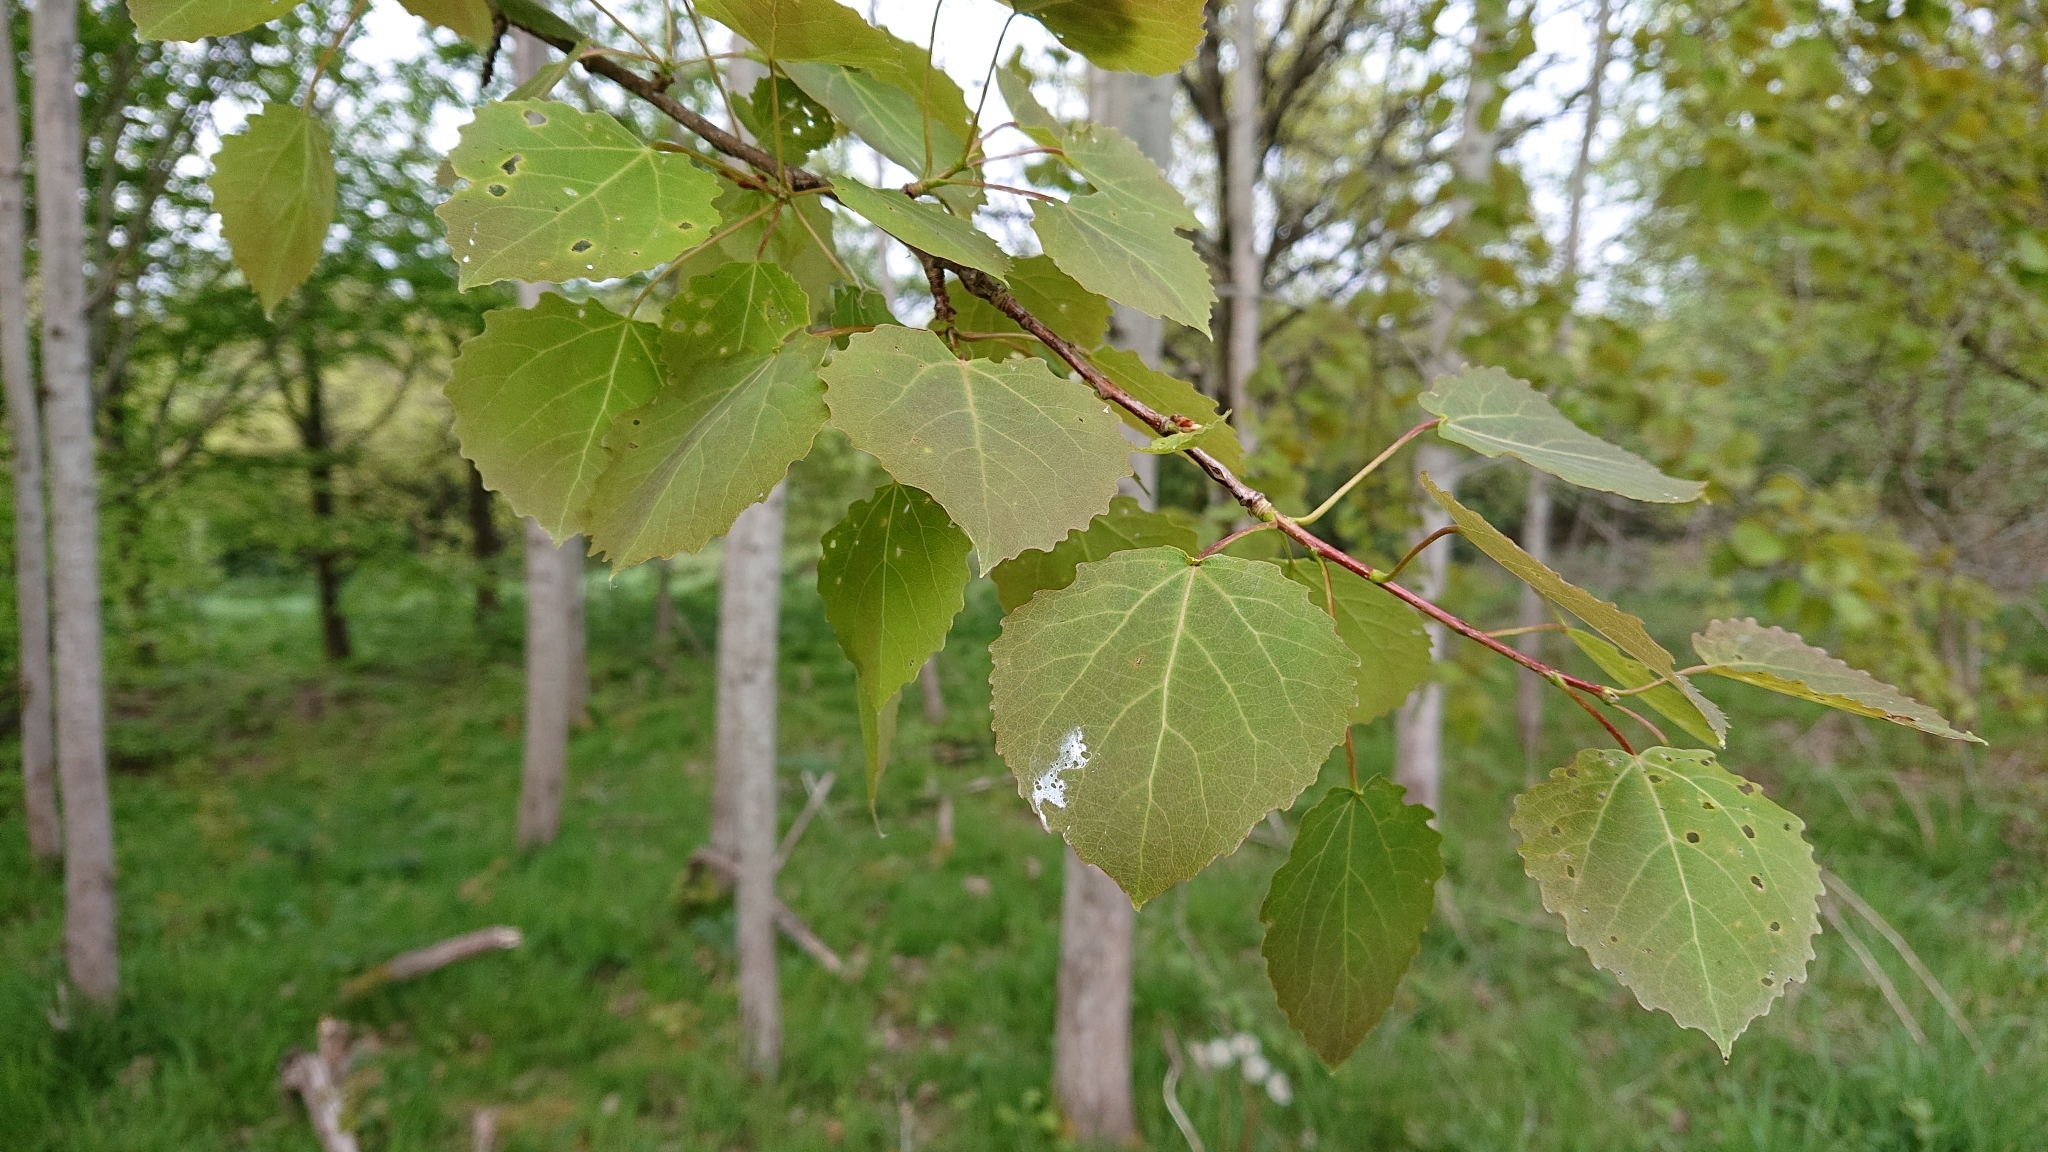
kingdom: Plantae
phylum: Tracheophyta
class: Magnoliopsida
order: Malpighiales
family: Salicaceae
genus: Populus
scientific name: Populus tremula
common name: European aspen
